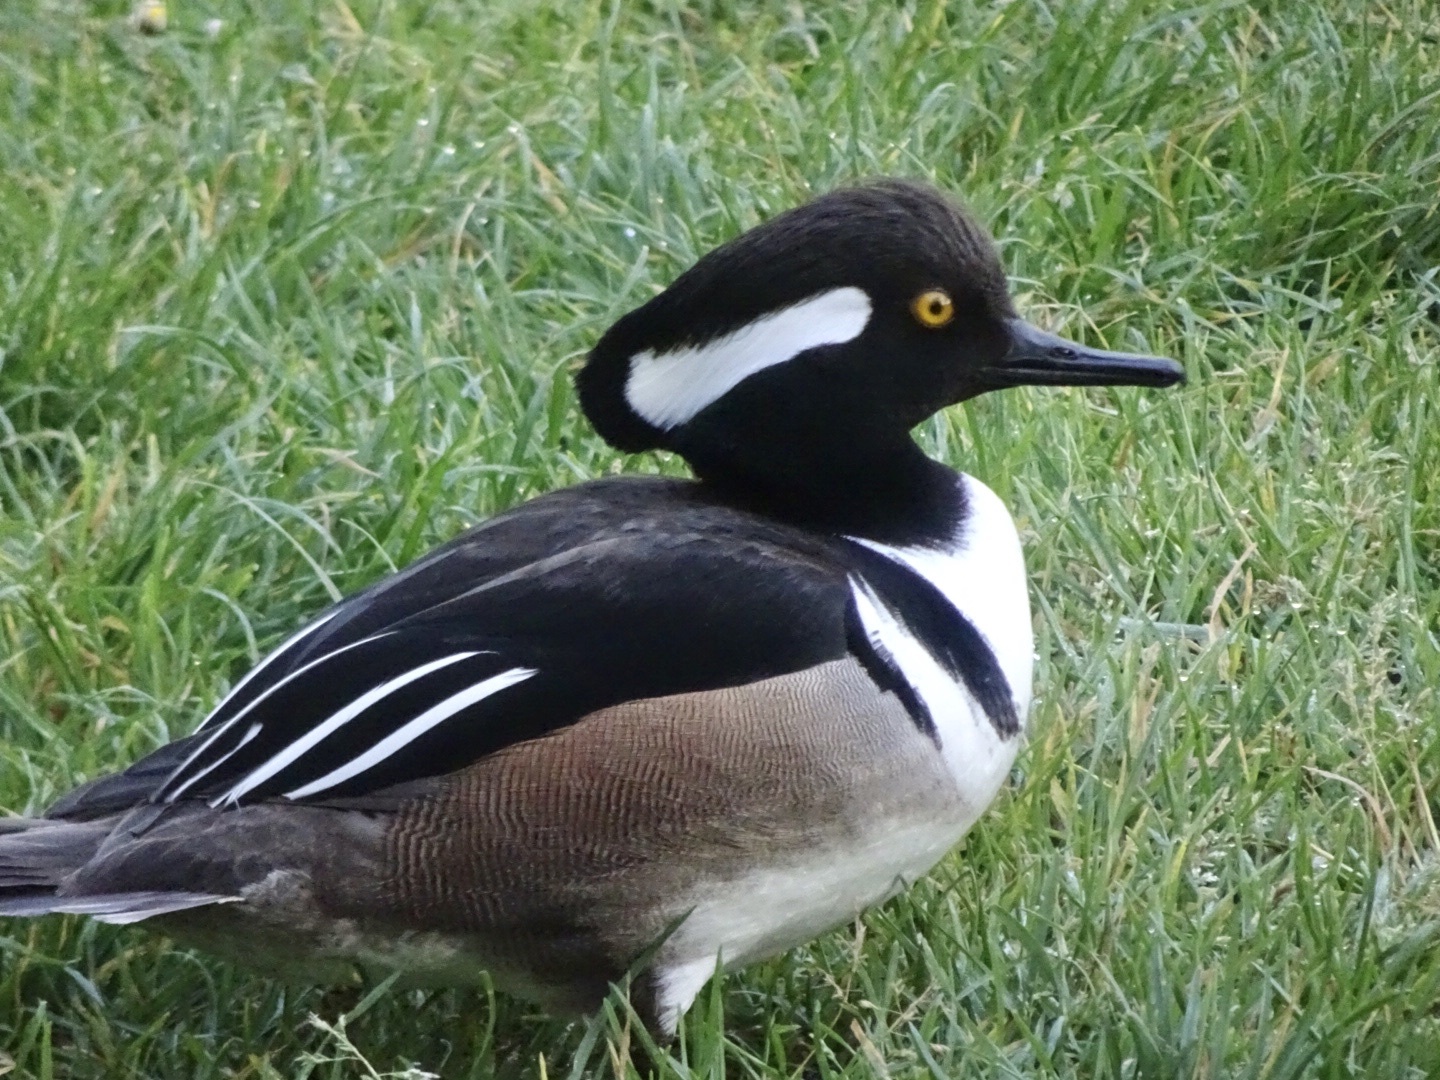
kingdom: Animalia
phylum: Chordata
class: Aves
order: Anseriformes
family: Anatidae
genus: Lophodytes
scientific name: Lophodytes cucullatus
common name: Hooded merganser
